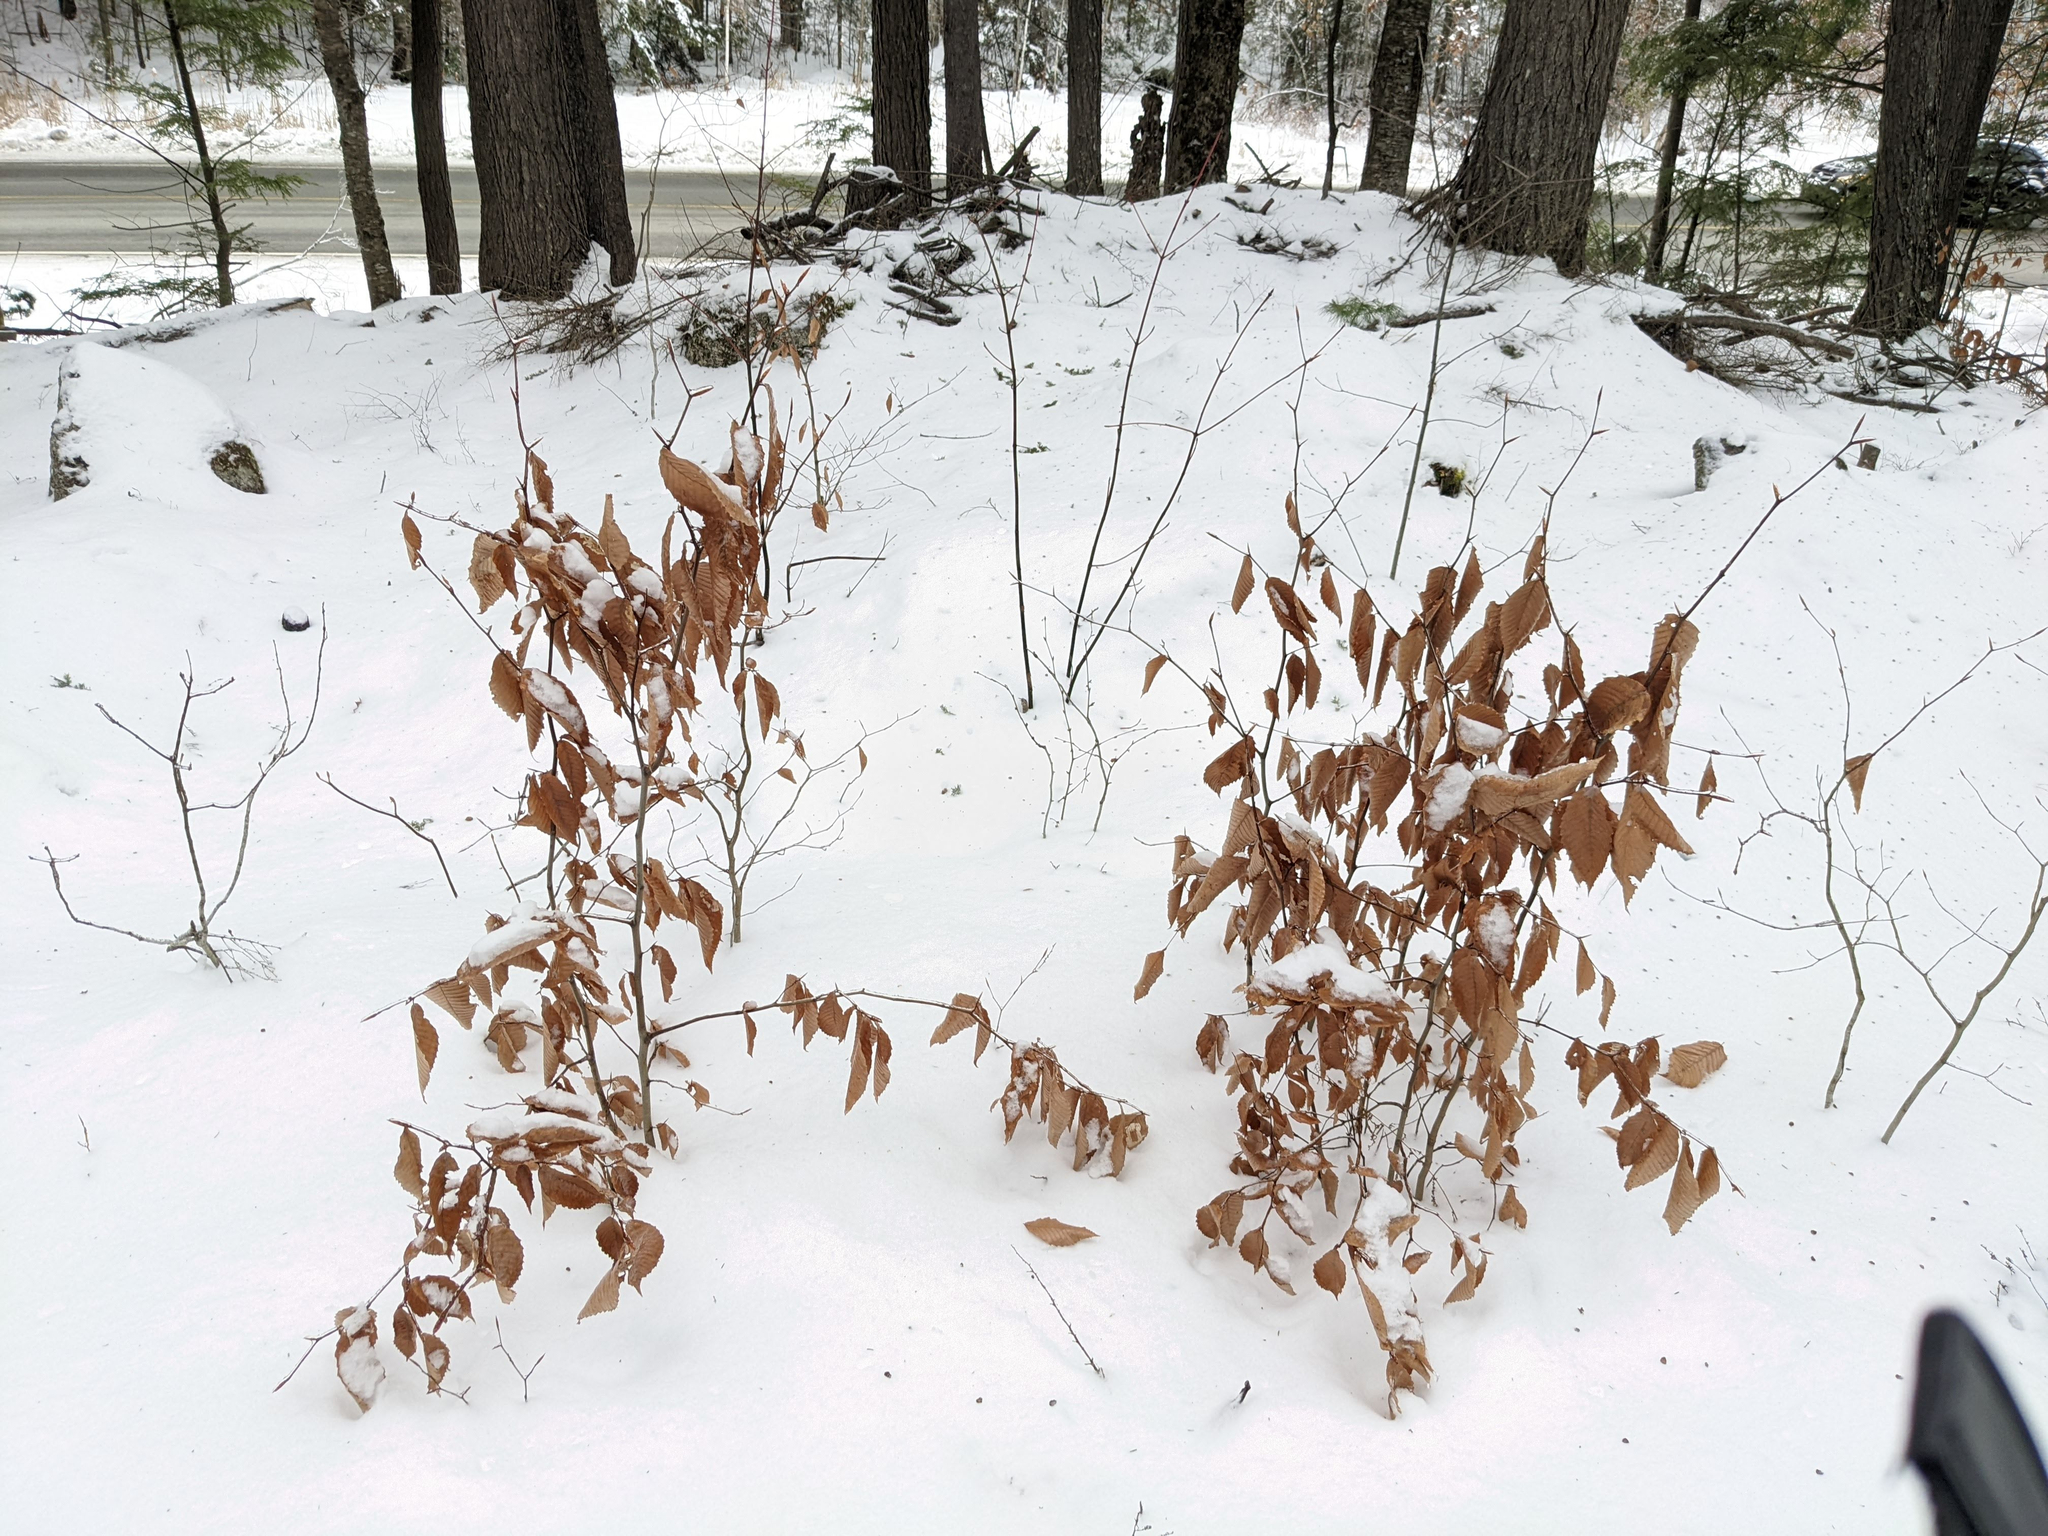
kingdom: Plantae
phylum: Tracheophyta
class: Magnoliopsida
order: Fagales
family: Fagaceae
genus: Fagus
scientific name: Fagus grandifolia
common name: American beech
